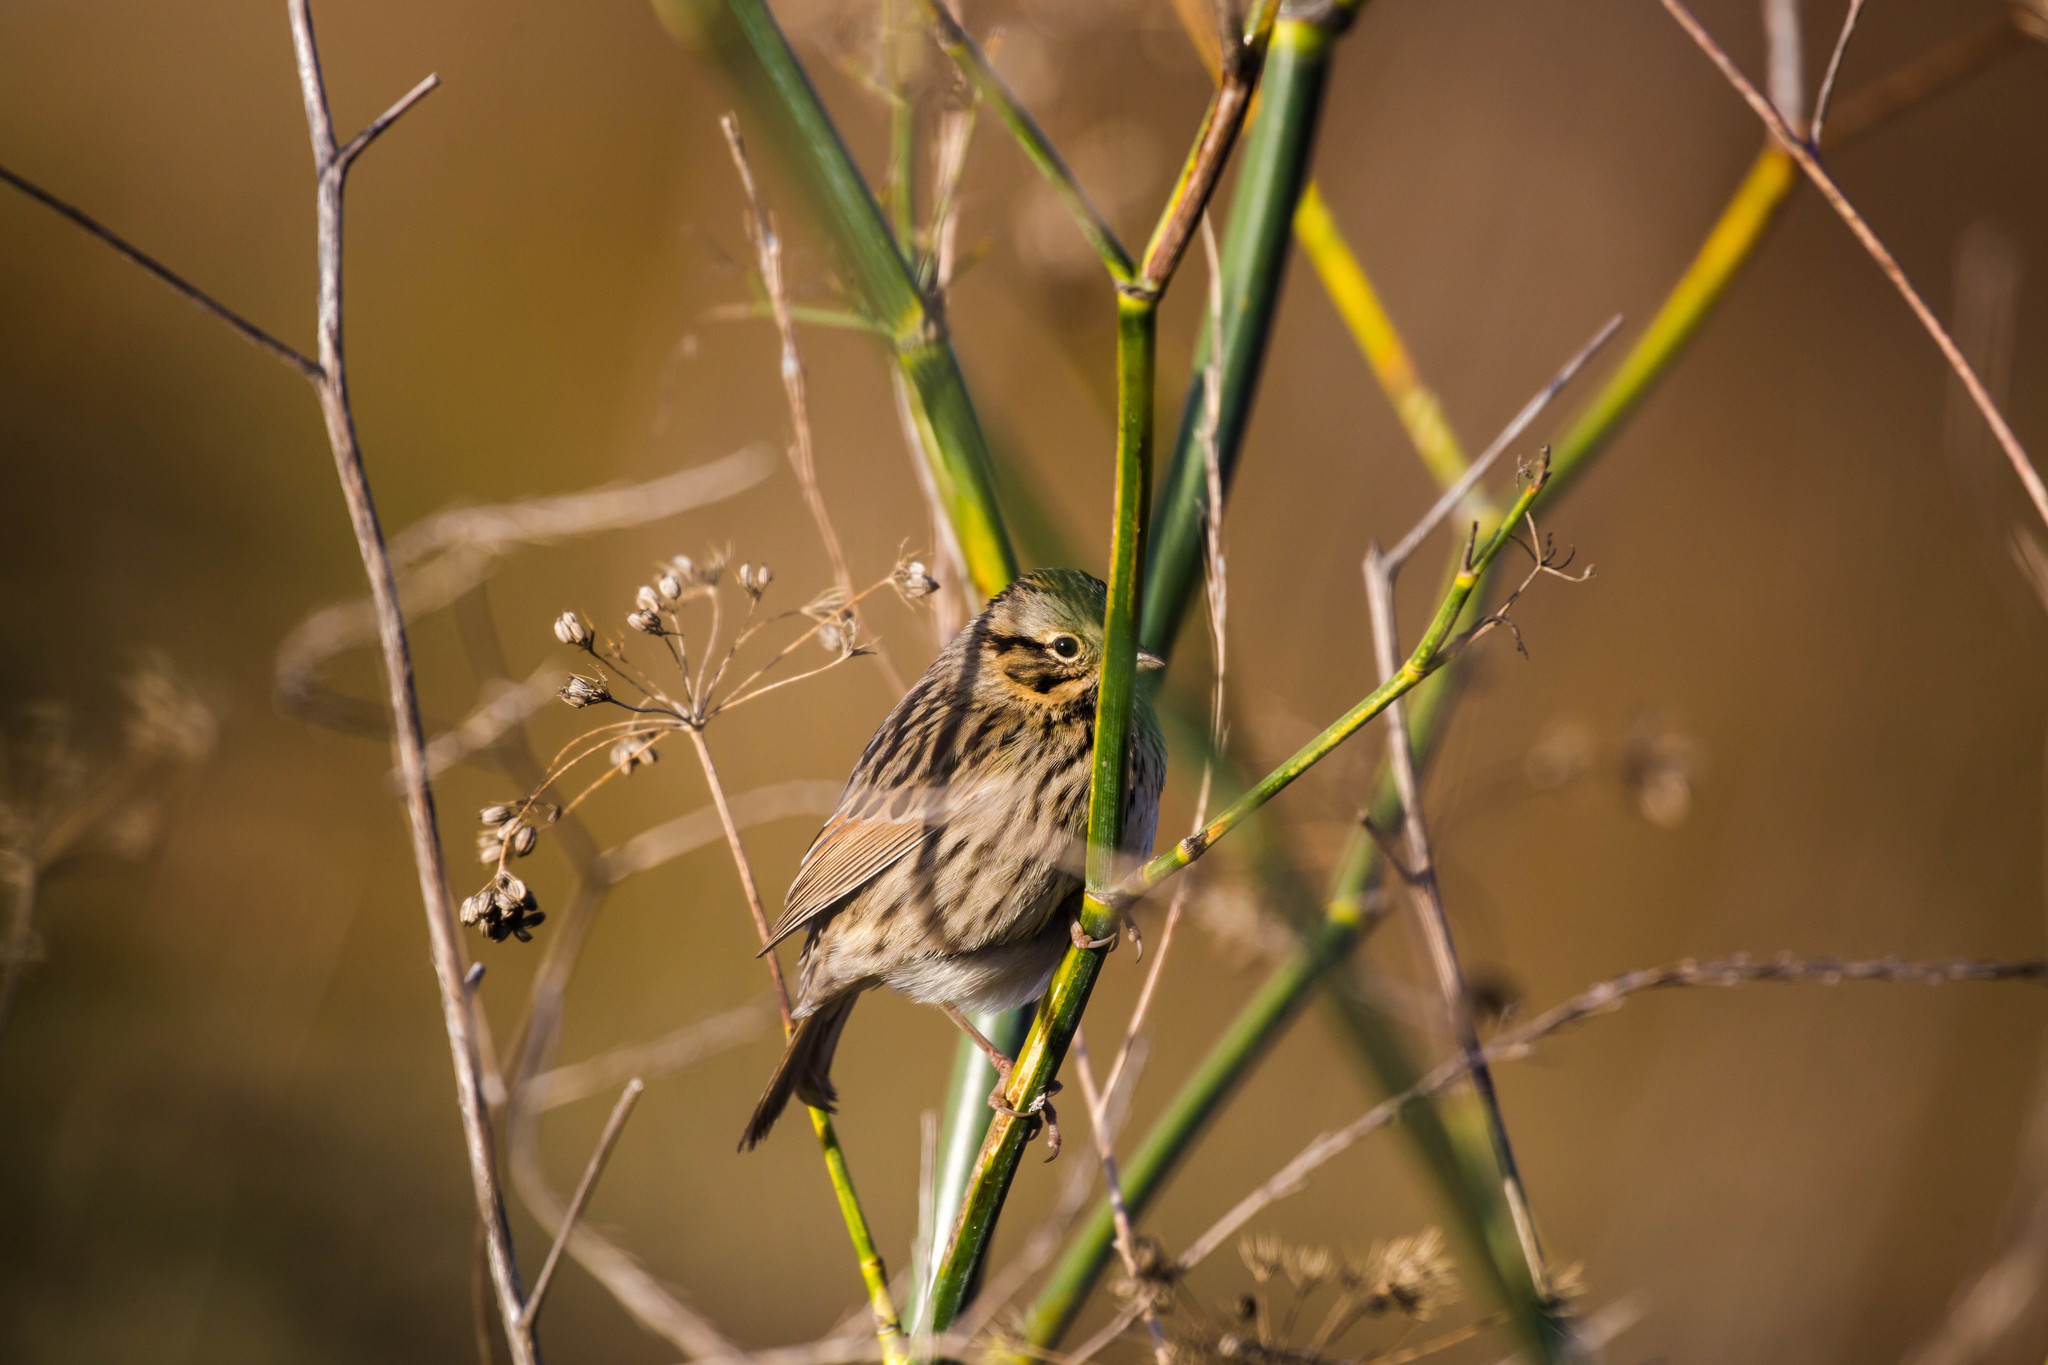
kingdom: Animalia
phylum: Chordata
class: Aves
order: Passeriformes
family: Passerellidae
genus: Melospiza
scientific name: Melospiza lincolnii
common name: Lincoln's sparrow
